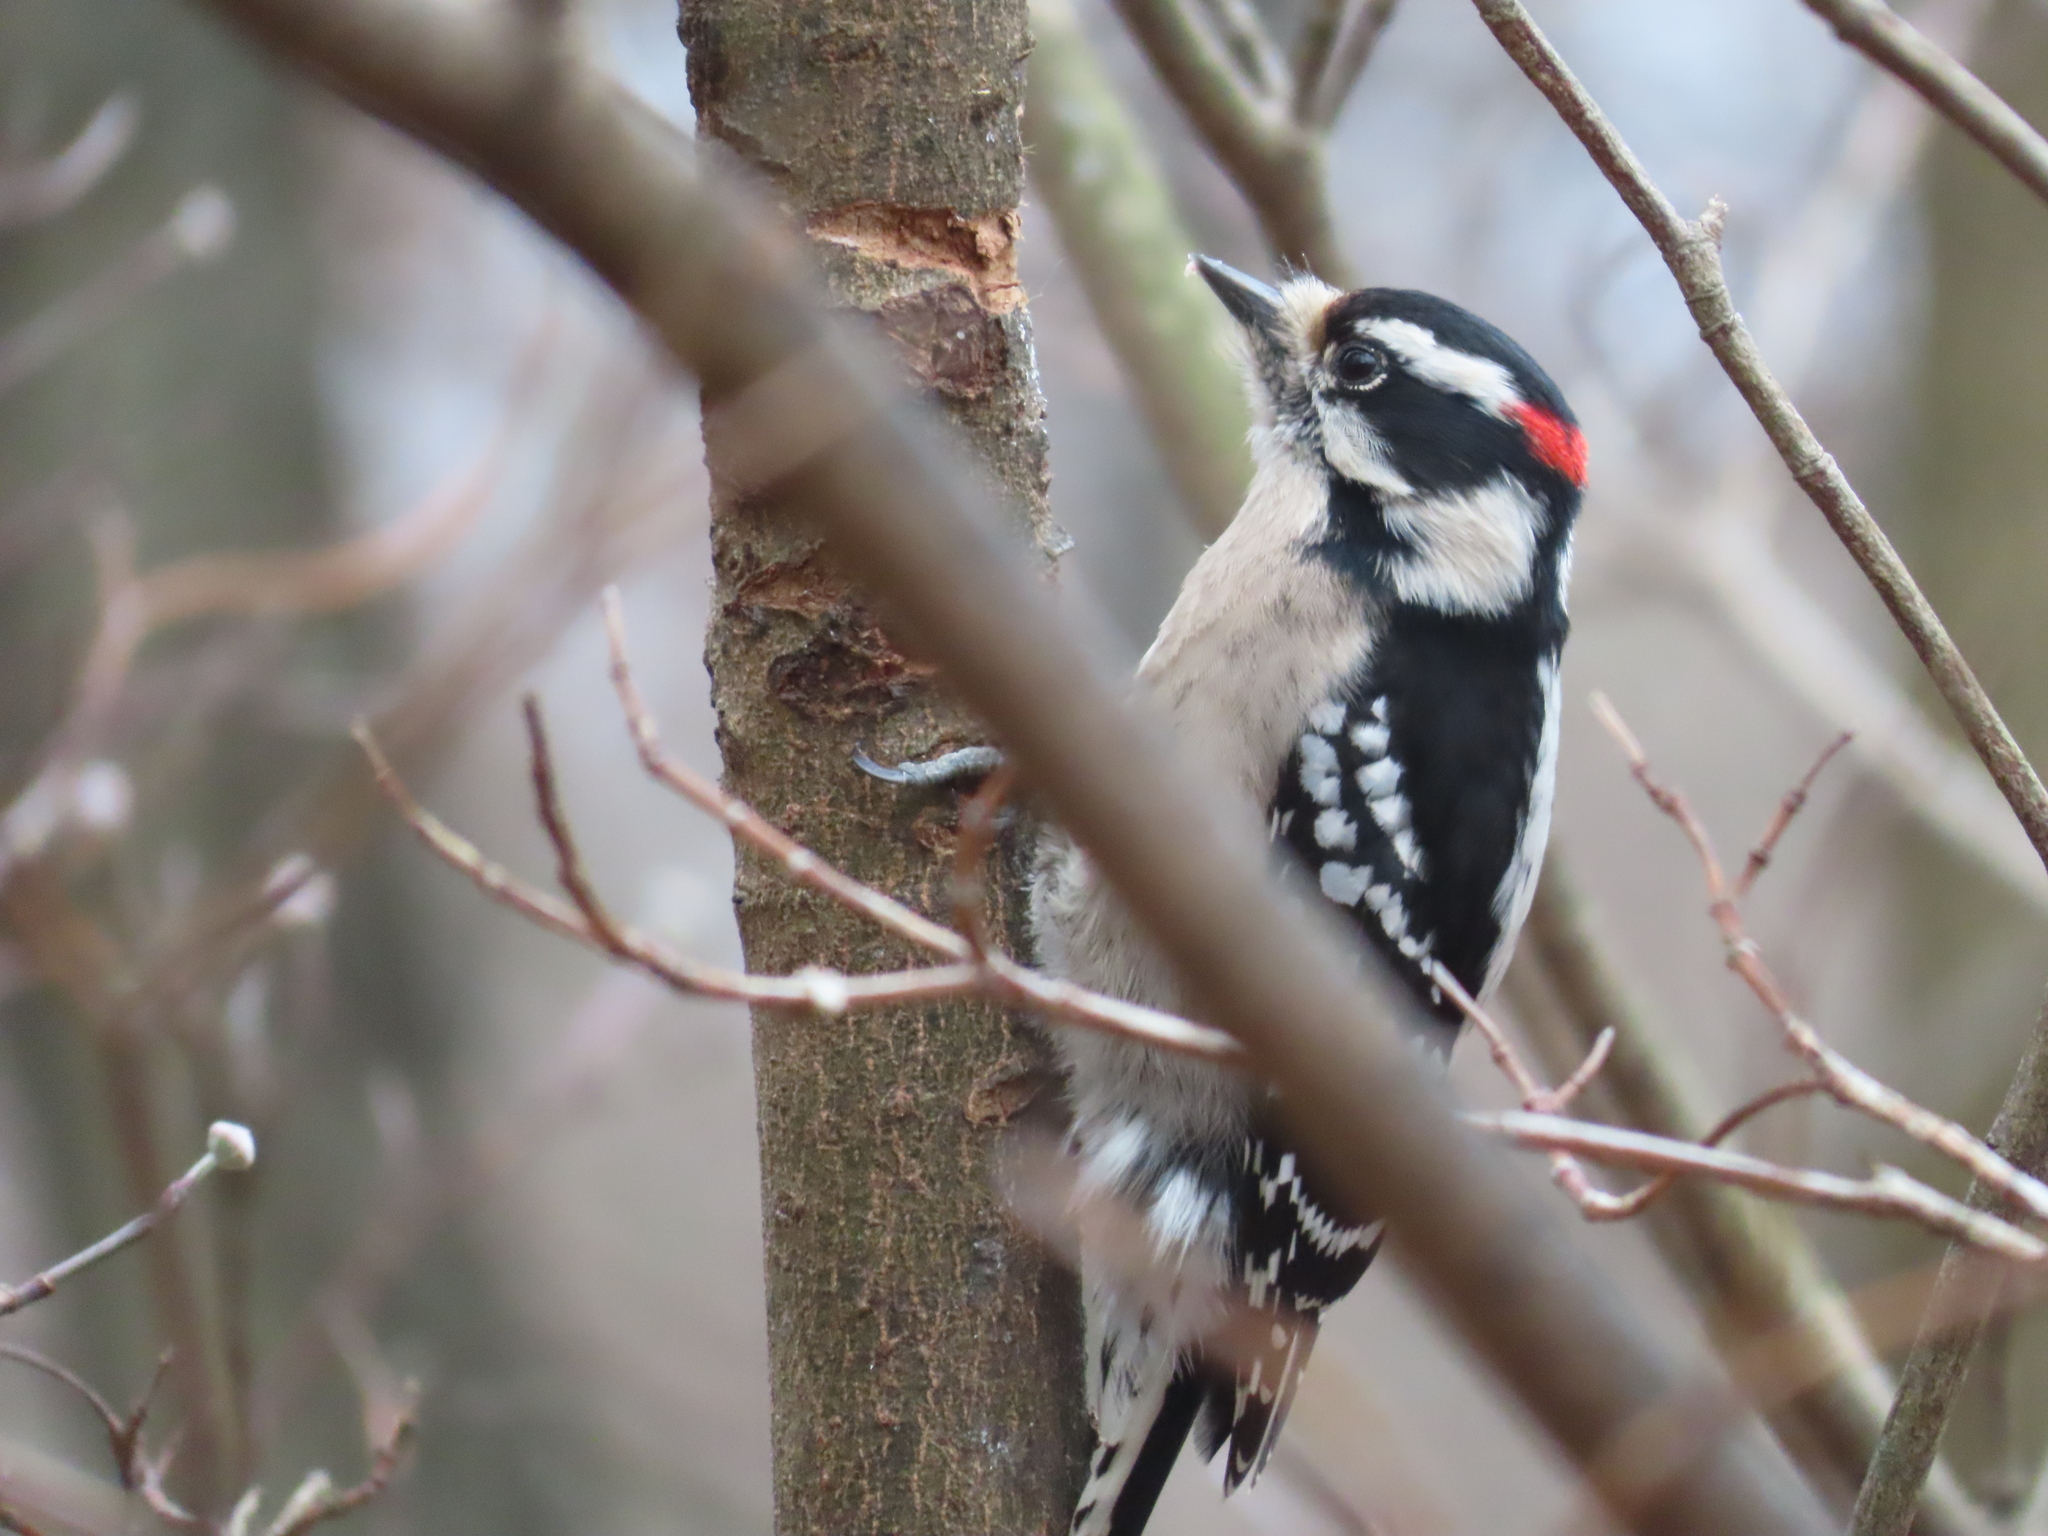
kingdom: Animalia
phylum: Chordata
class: Aves
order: Piciformes
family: Picidae
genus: Dryobates
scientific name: Dryobates pubescens
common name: Downy woodpecker
